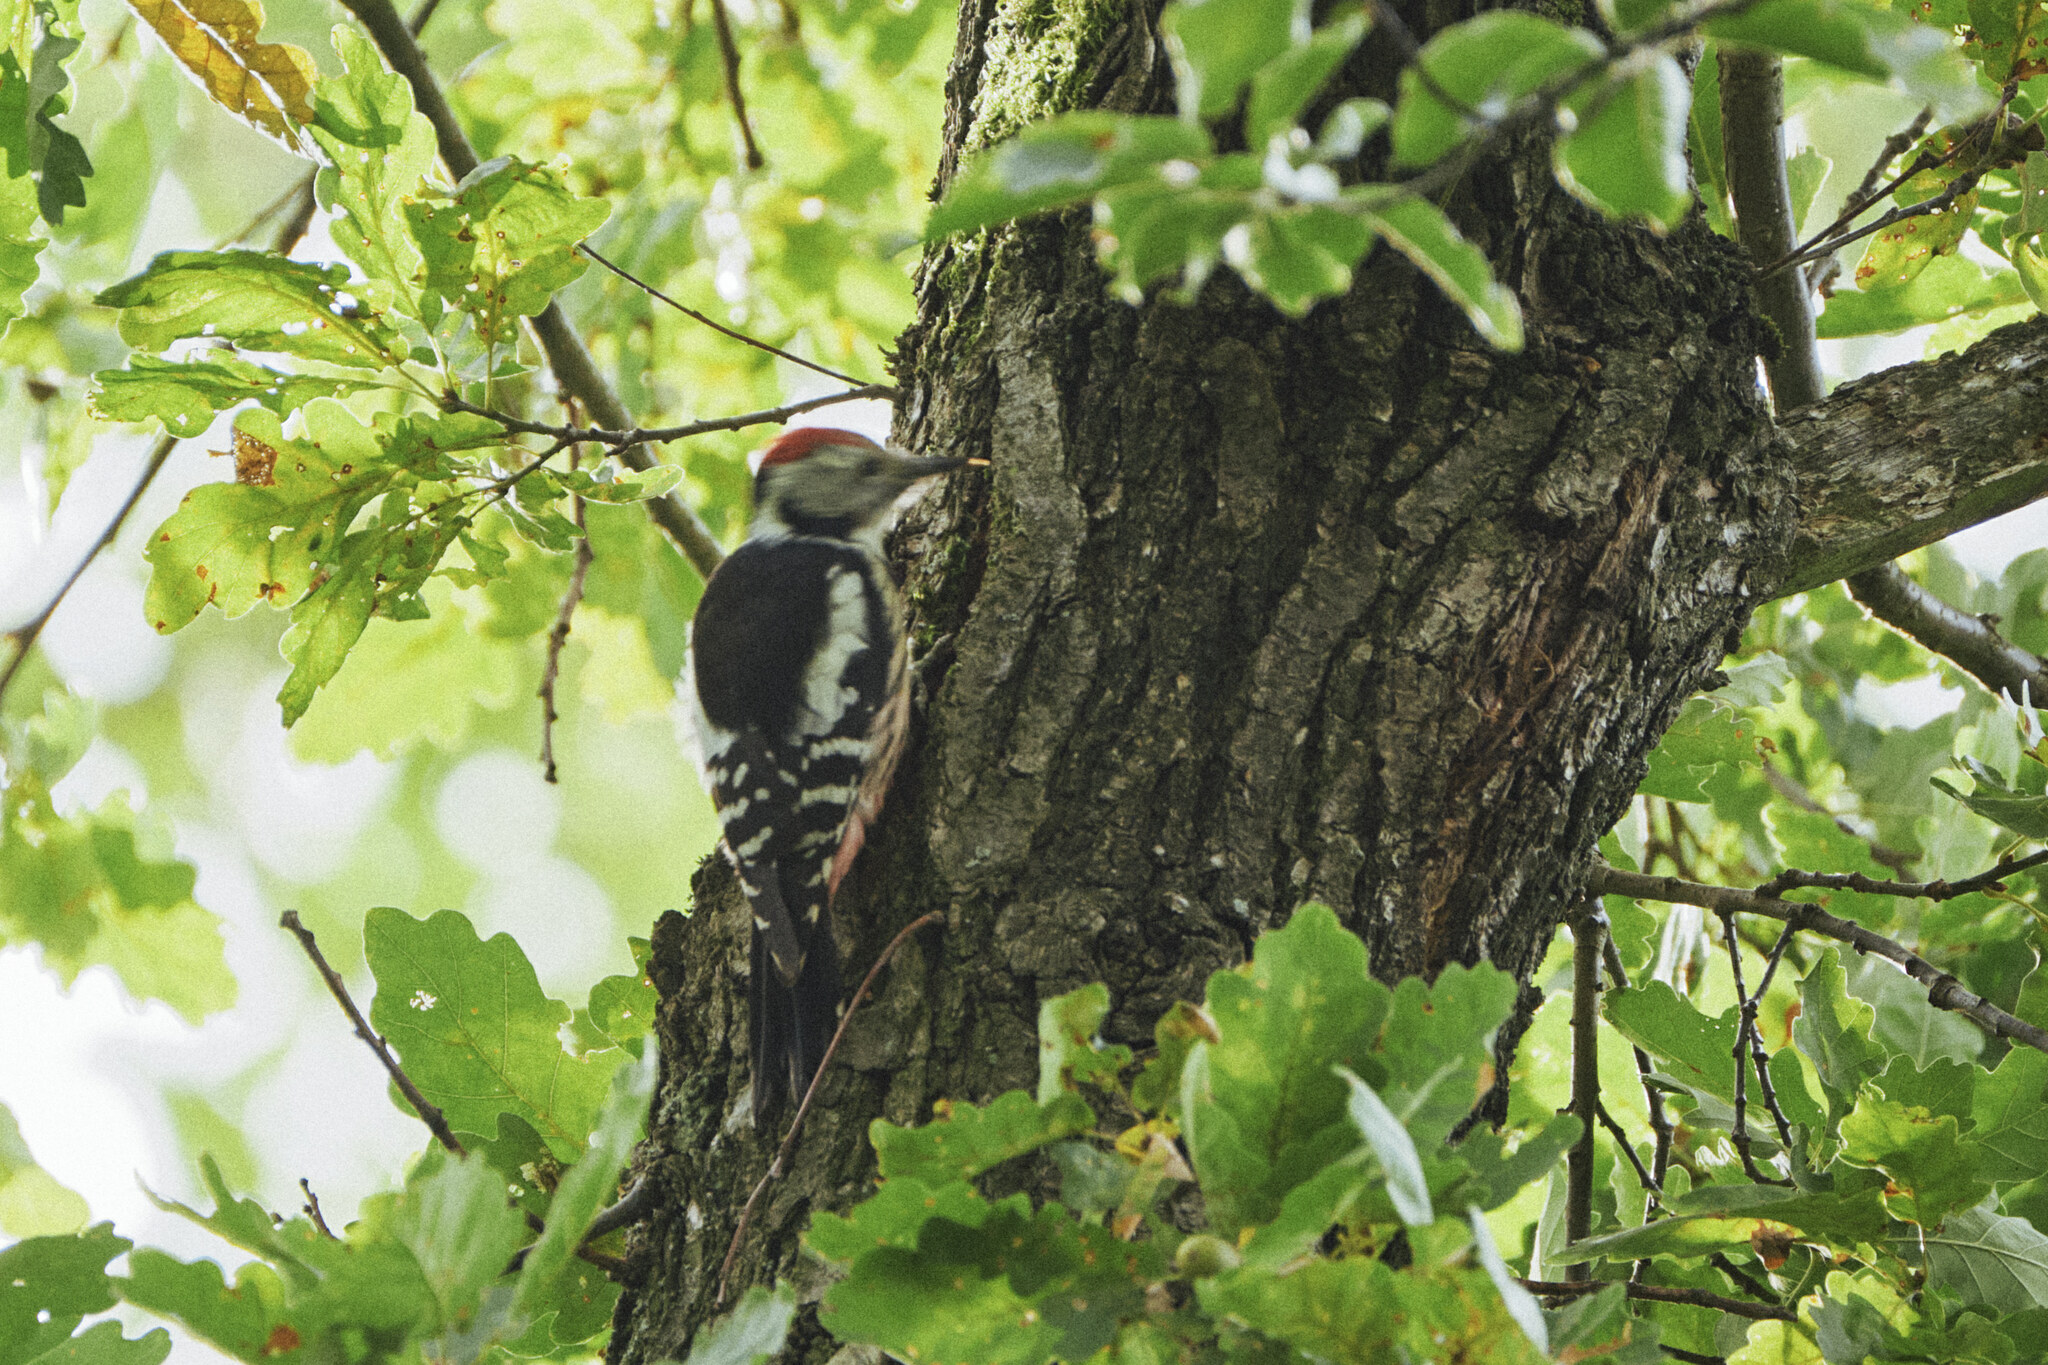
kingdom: Animalia
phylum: Chordata
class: Aves
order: Piciformes
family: Picidae
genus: Dendrocoptes
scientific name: Dendrocoptes medius
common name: Middle spotted woodpecker
